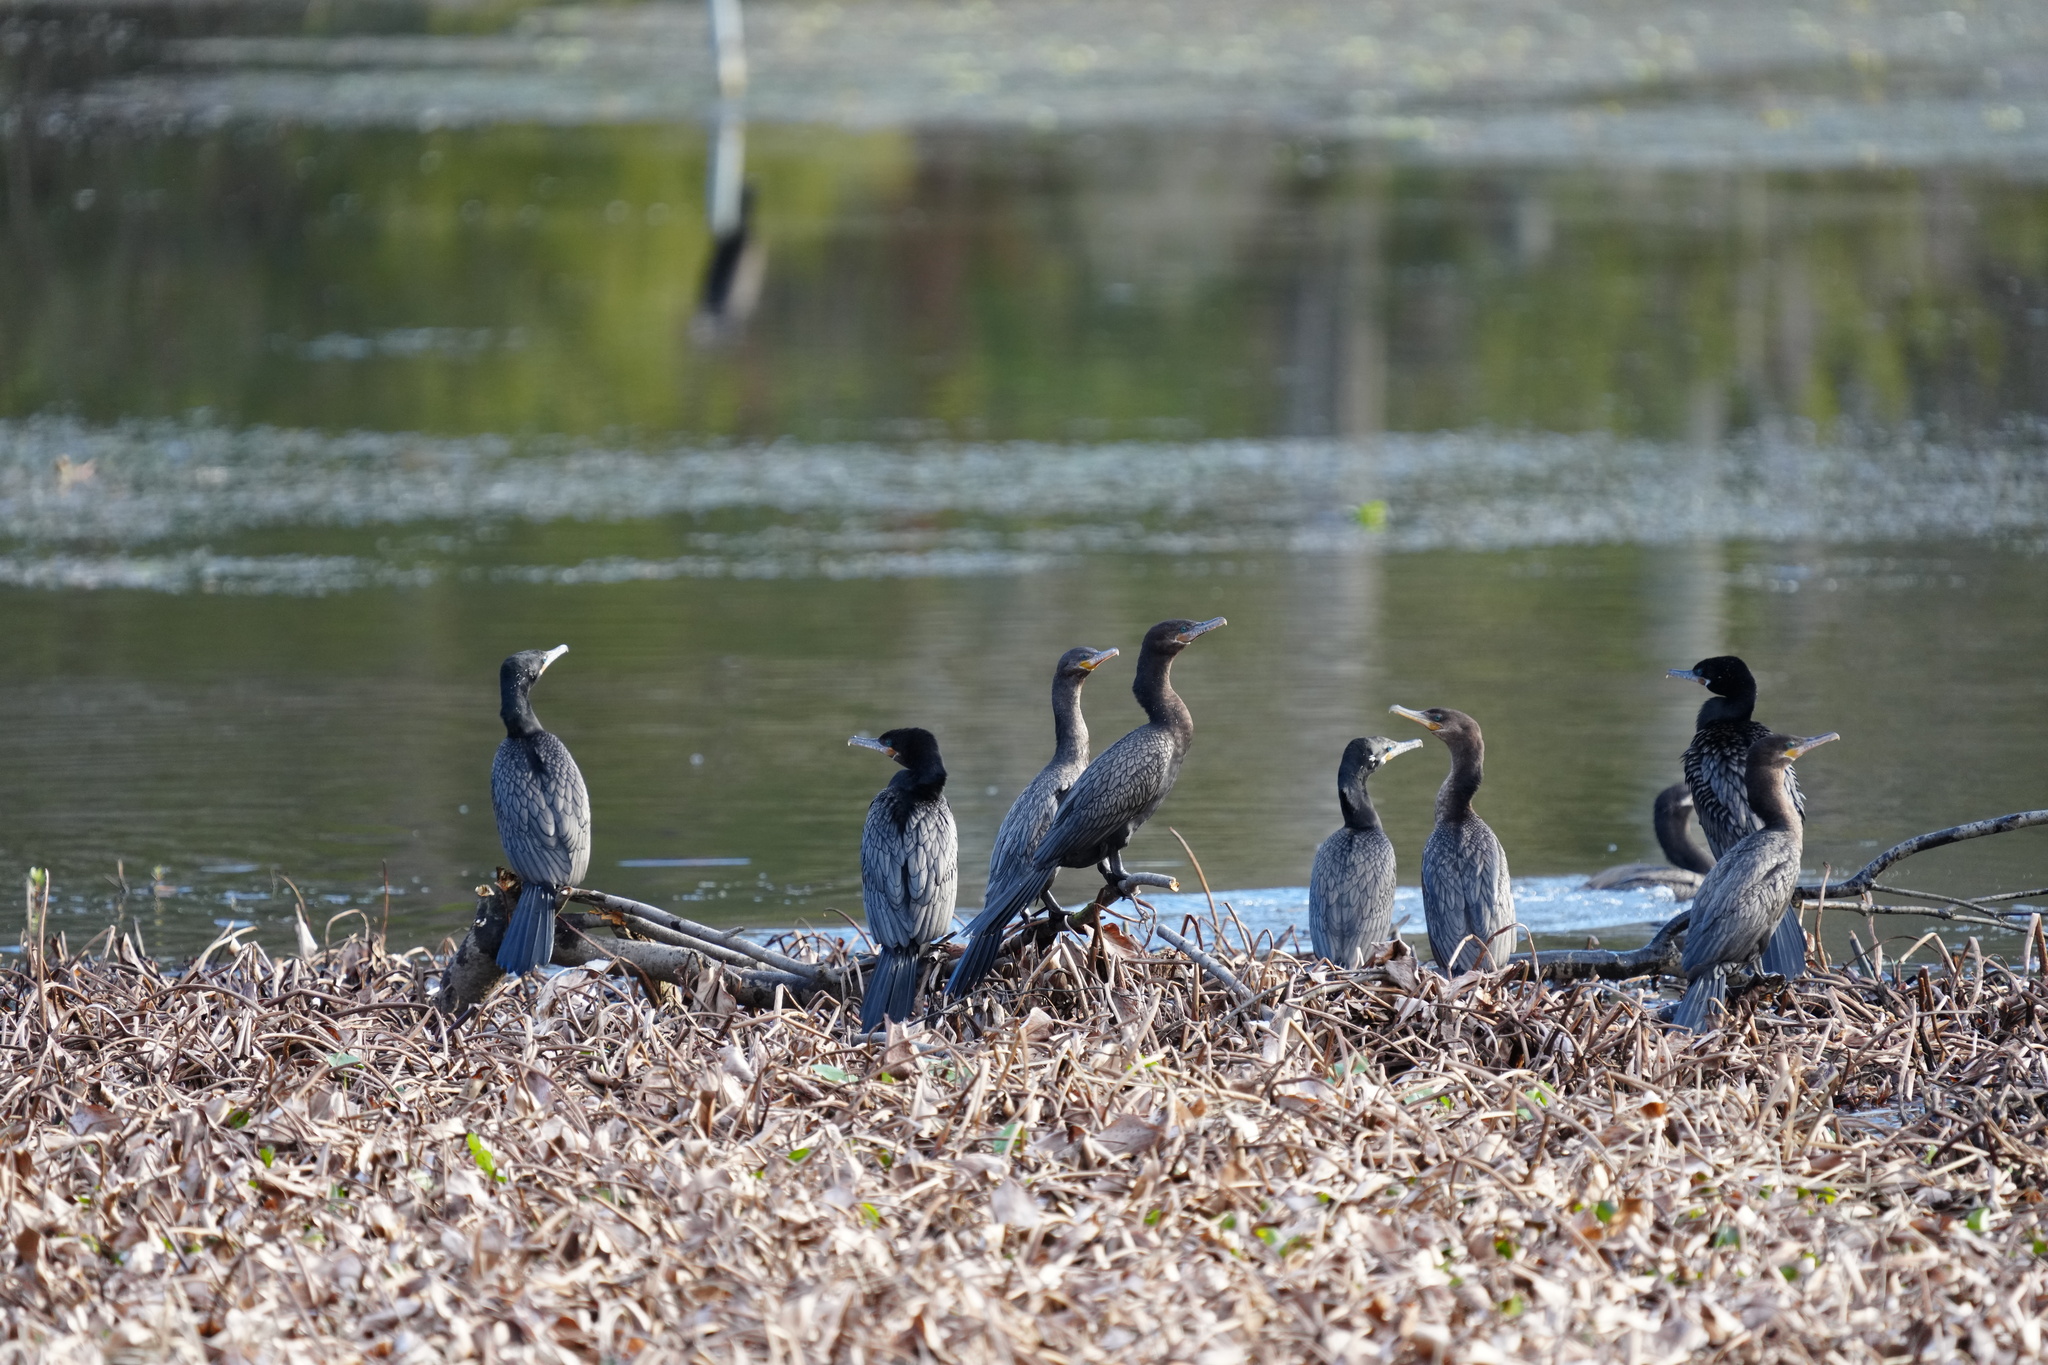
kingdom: Animalia
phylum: Chordata
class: Aves
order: Suliformes
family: Phalacrocoracidae
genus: Phalacrocorax
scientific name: Phalacrocorax brasilianus
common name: Neotropic cormorant
